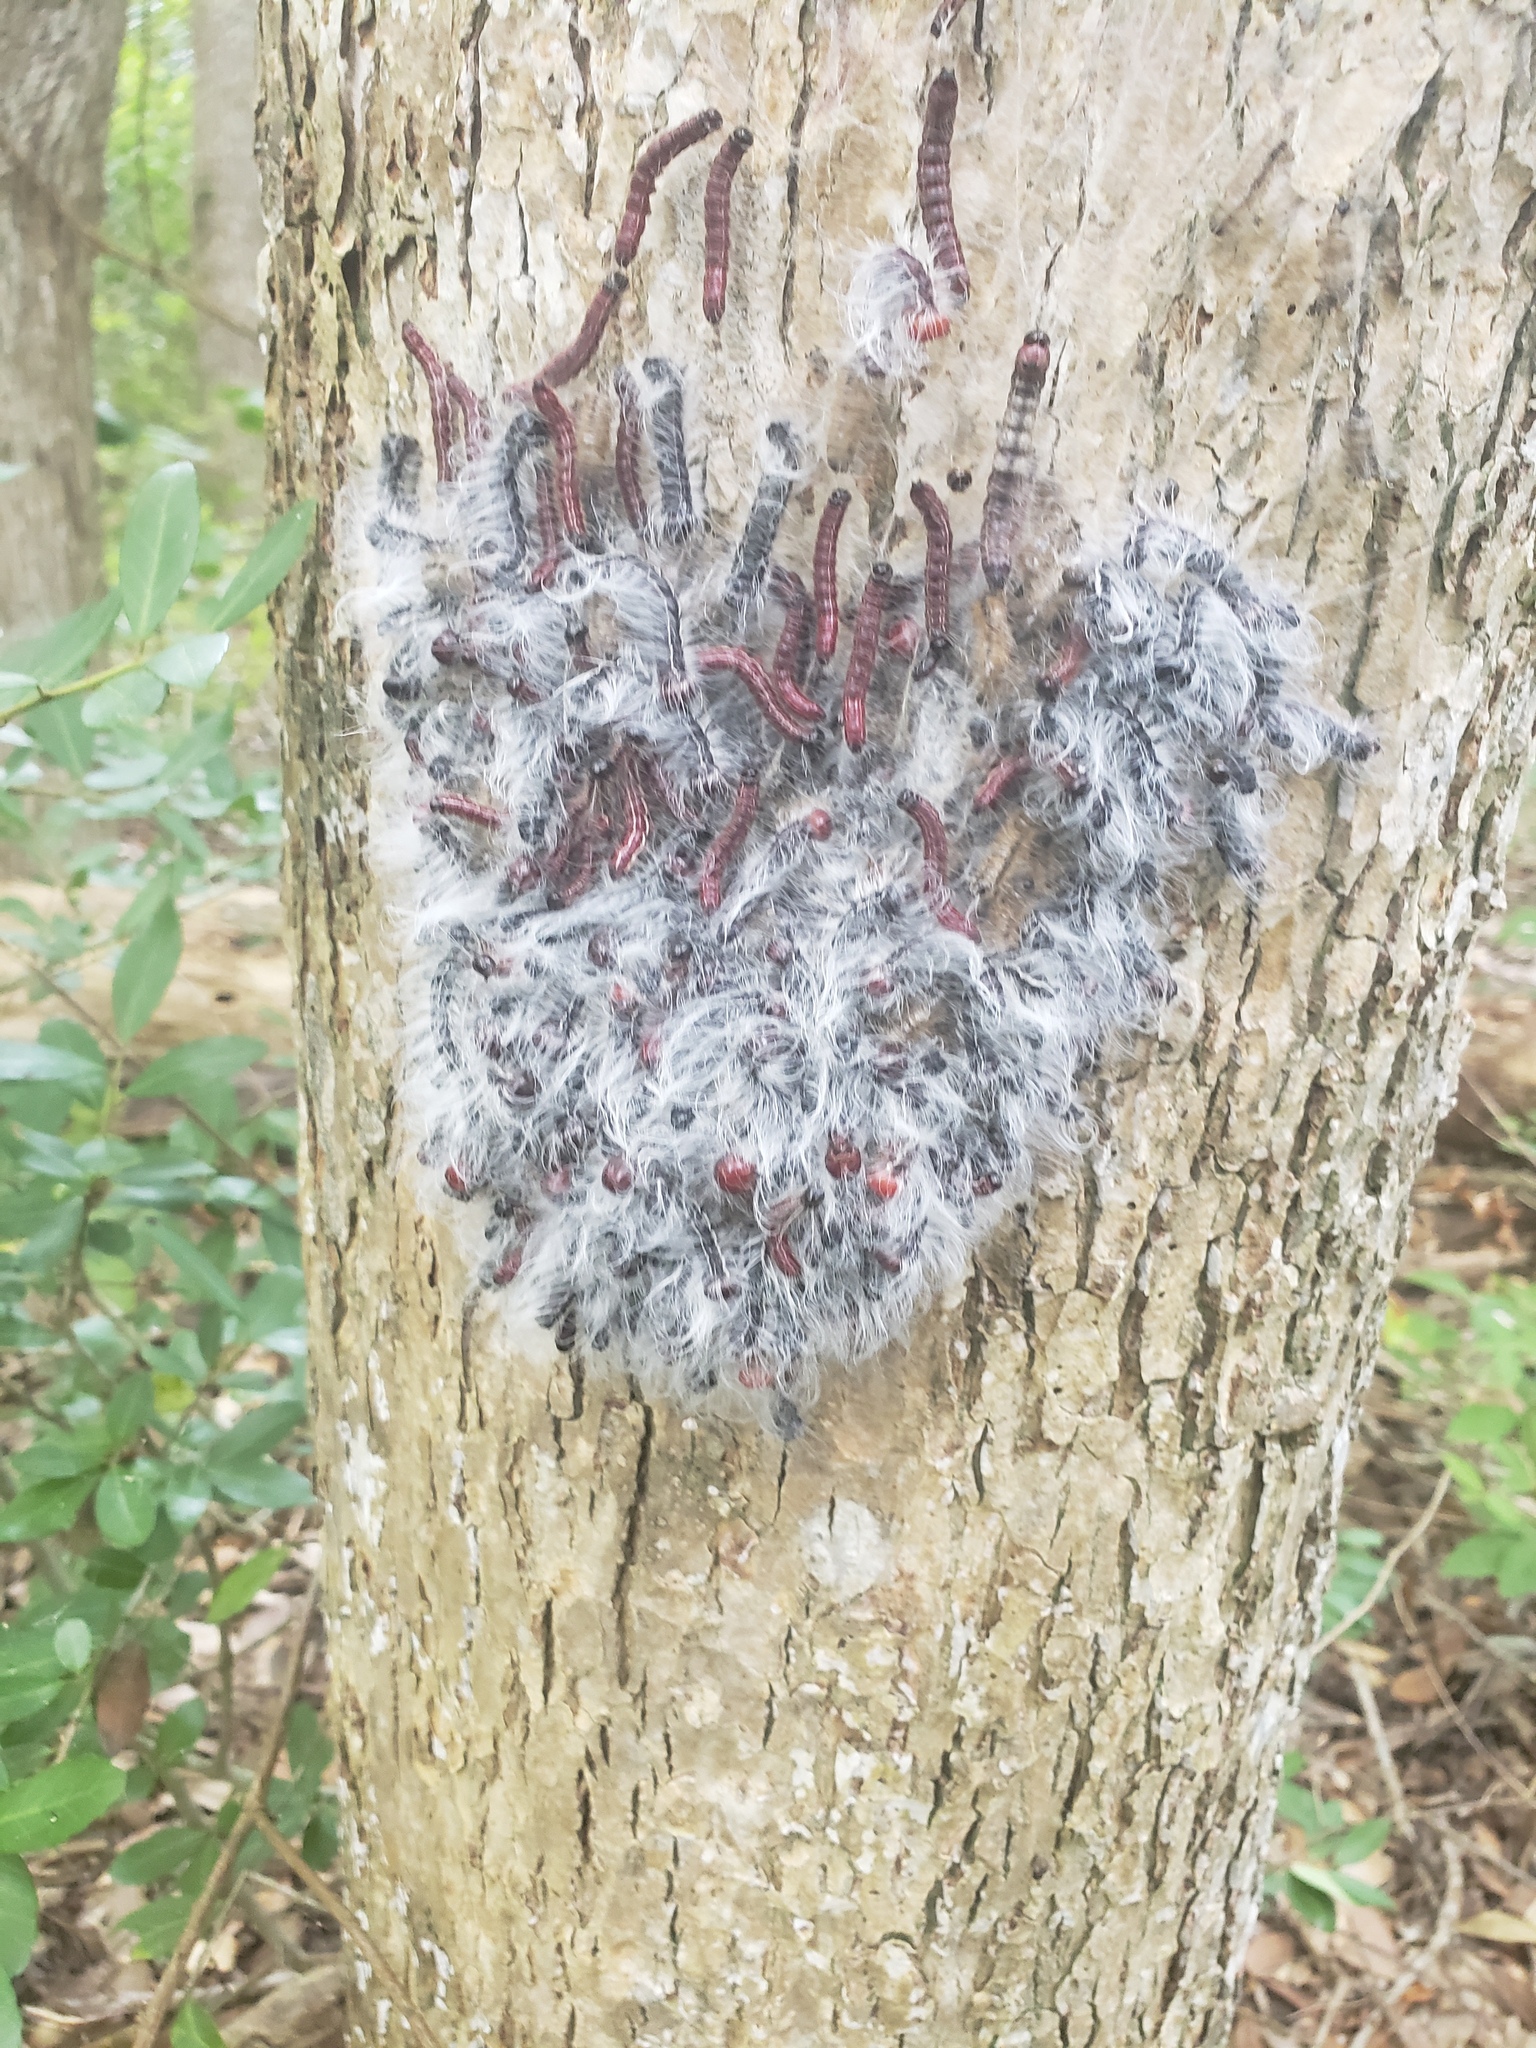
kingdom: Animalia
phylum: Arthropoda
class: Insecta
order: Lepidoptera
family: Notodontidae
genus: Datana
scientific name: Datana integerrima
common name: Walnut caterpillar
